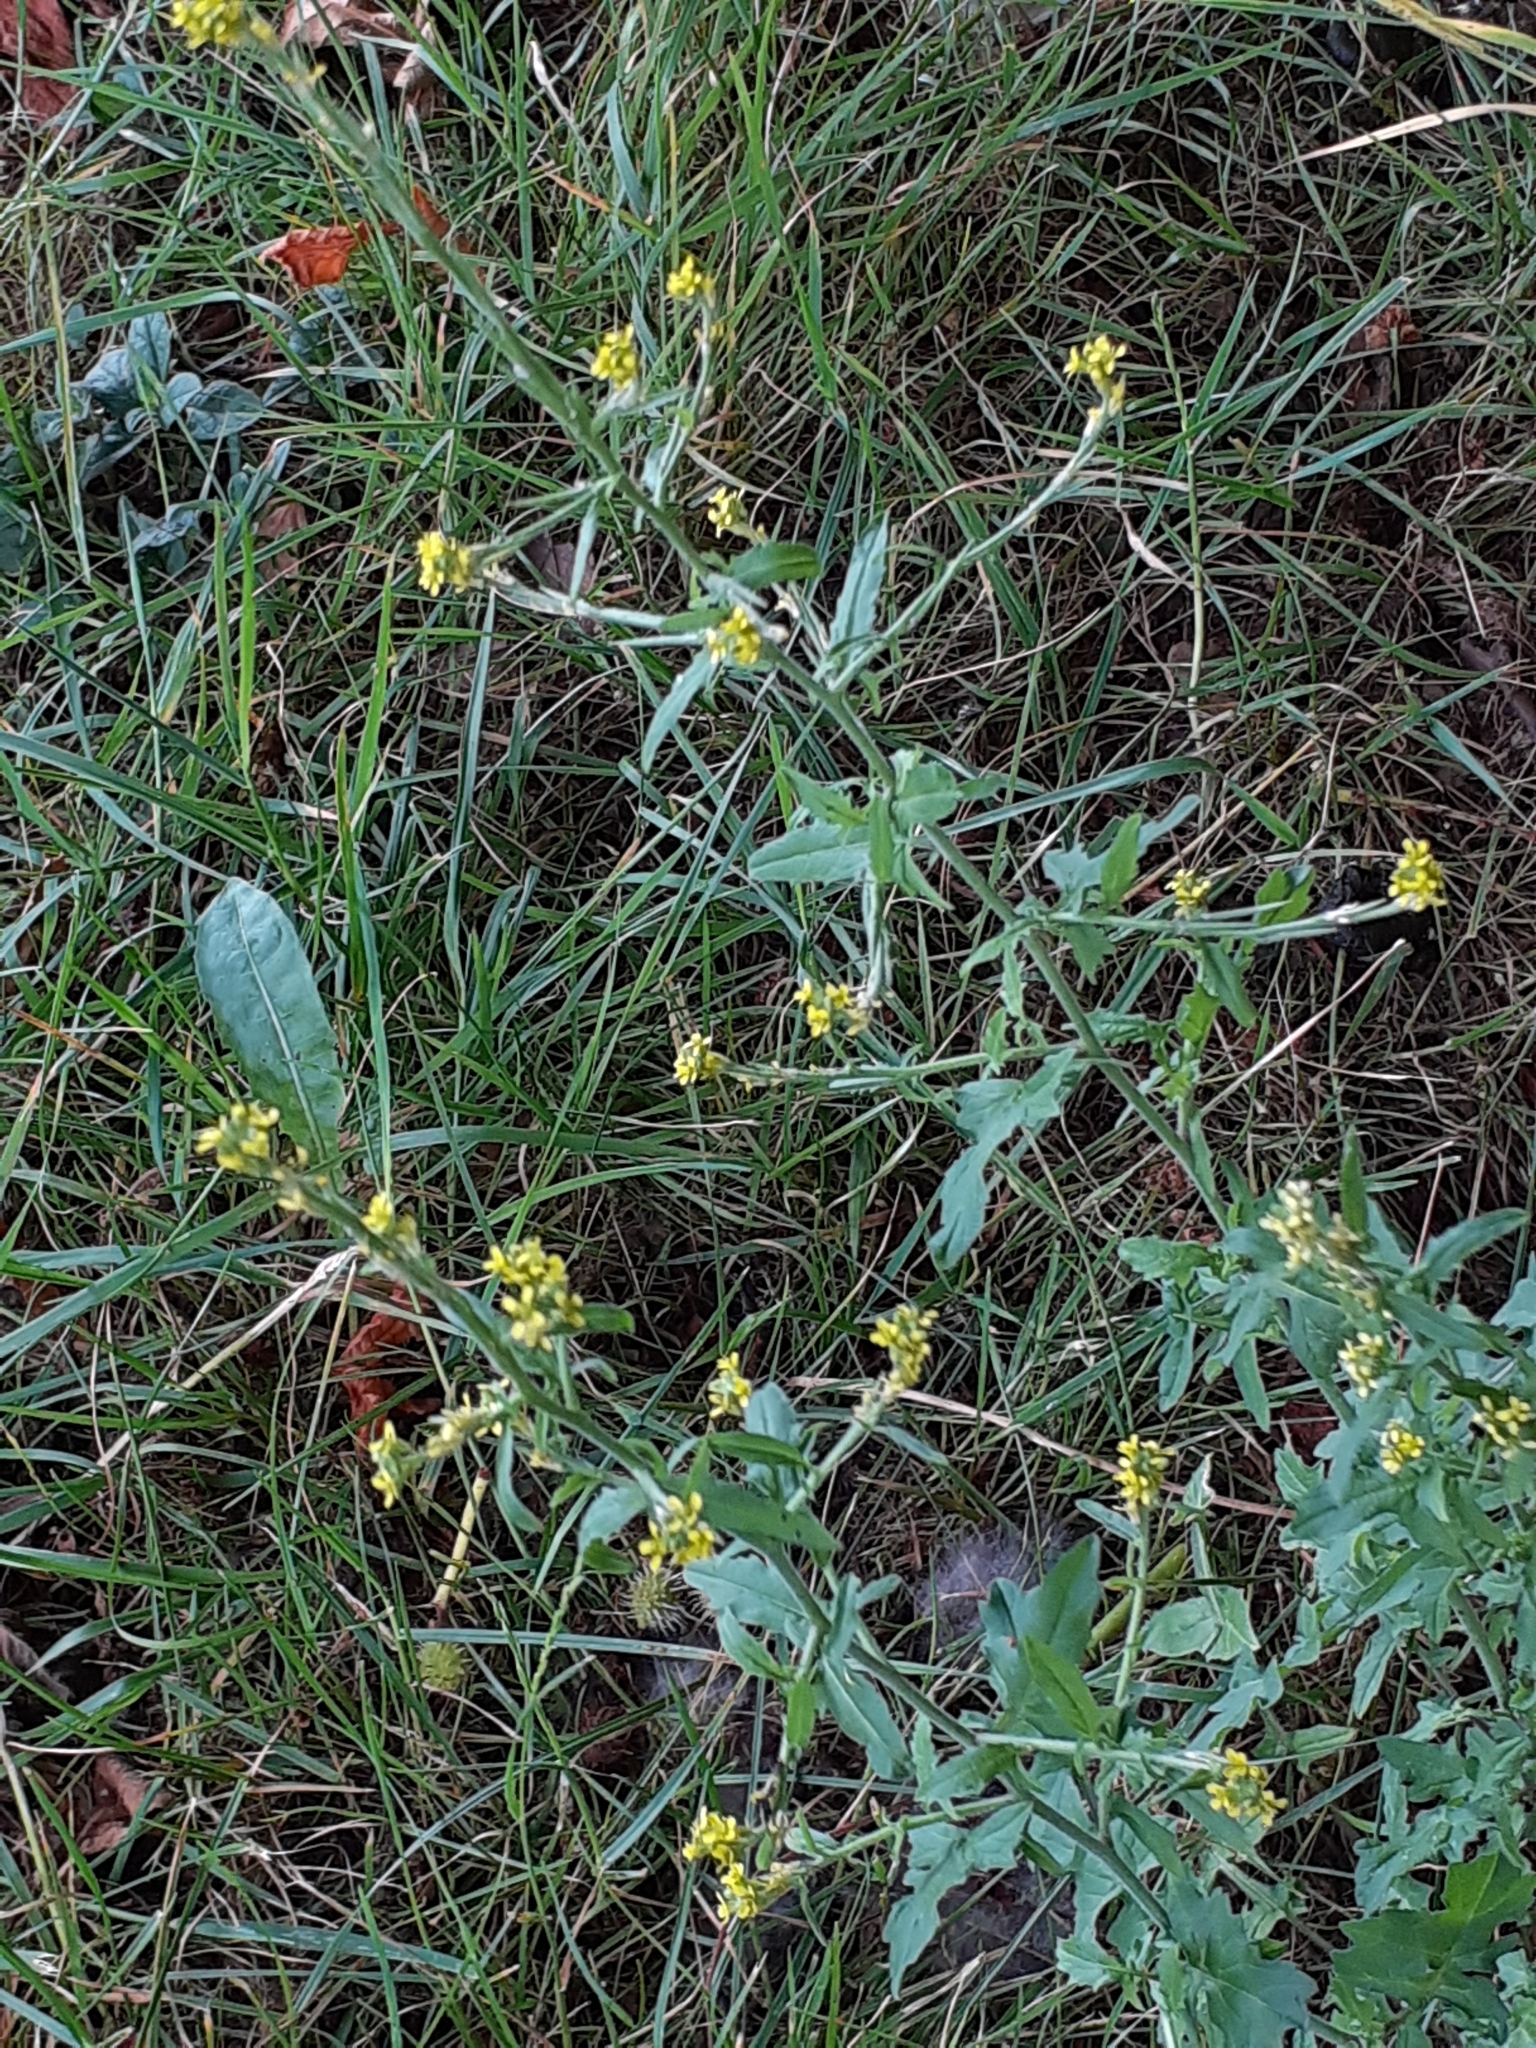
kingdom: Plantae
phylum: Tracheophyta
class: Magnoliopsida
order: Brassicales
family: Brassicaceae
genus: Sisymbrium
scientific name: Sisymbrium officinale
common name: Hedge mustard
